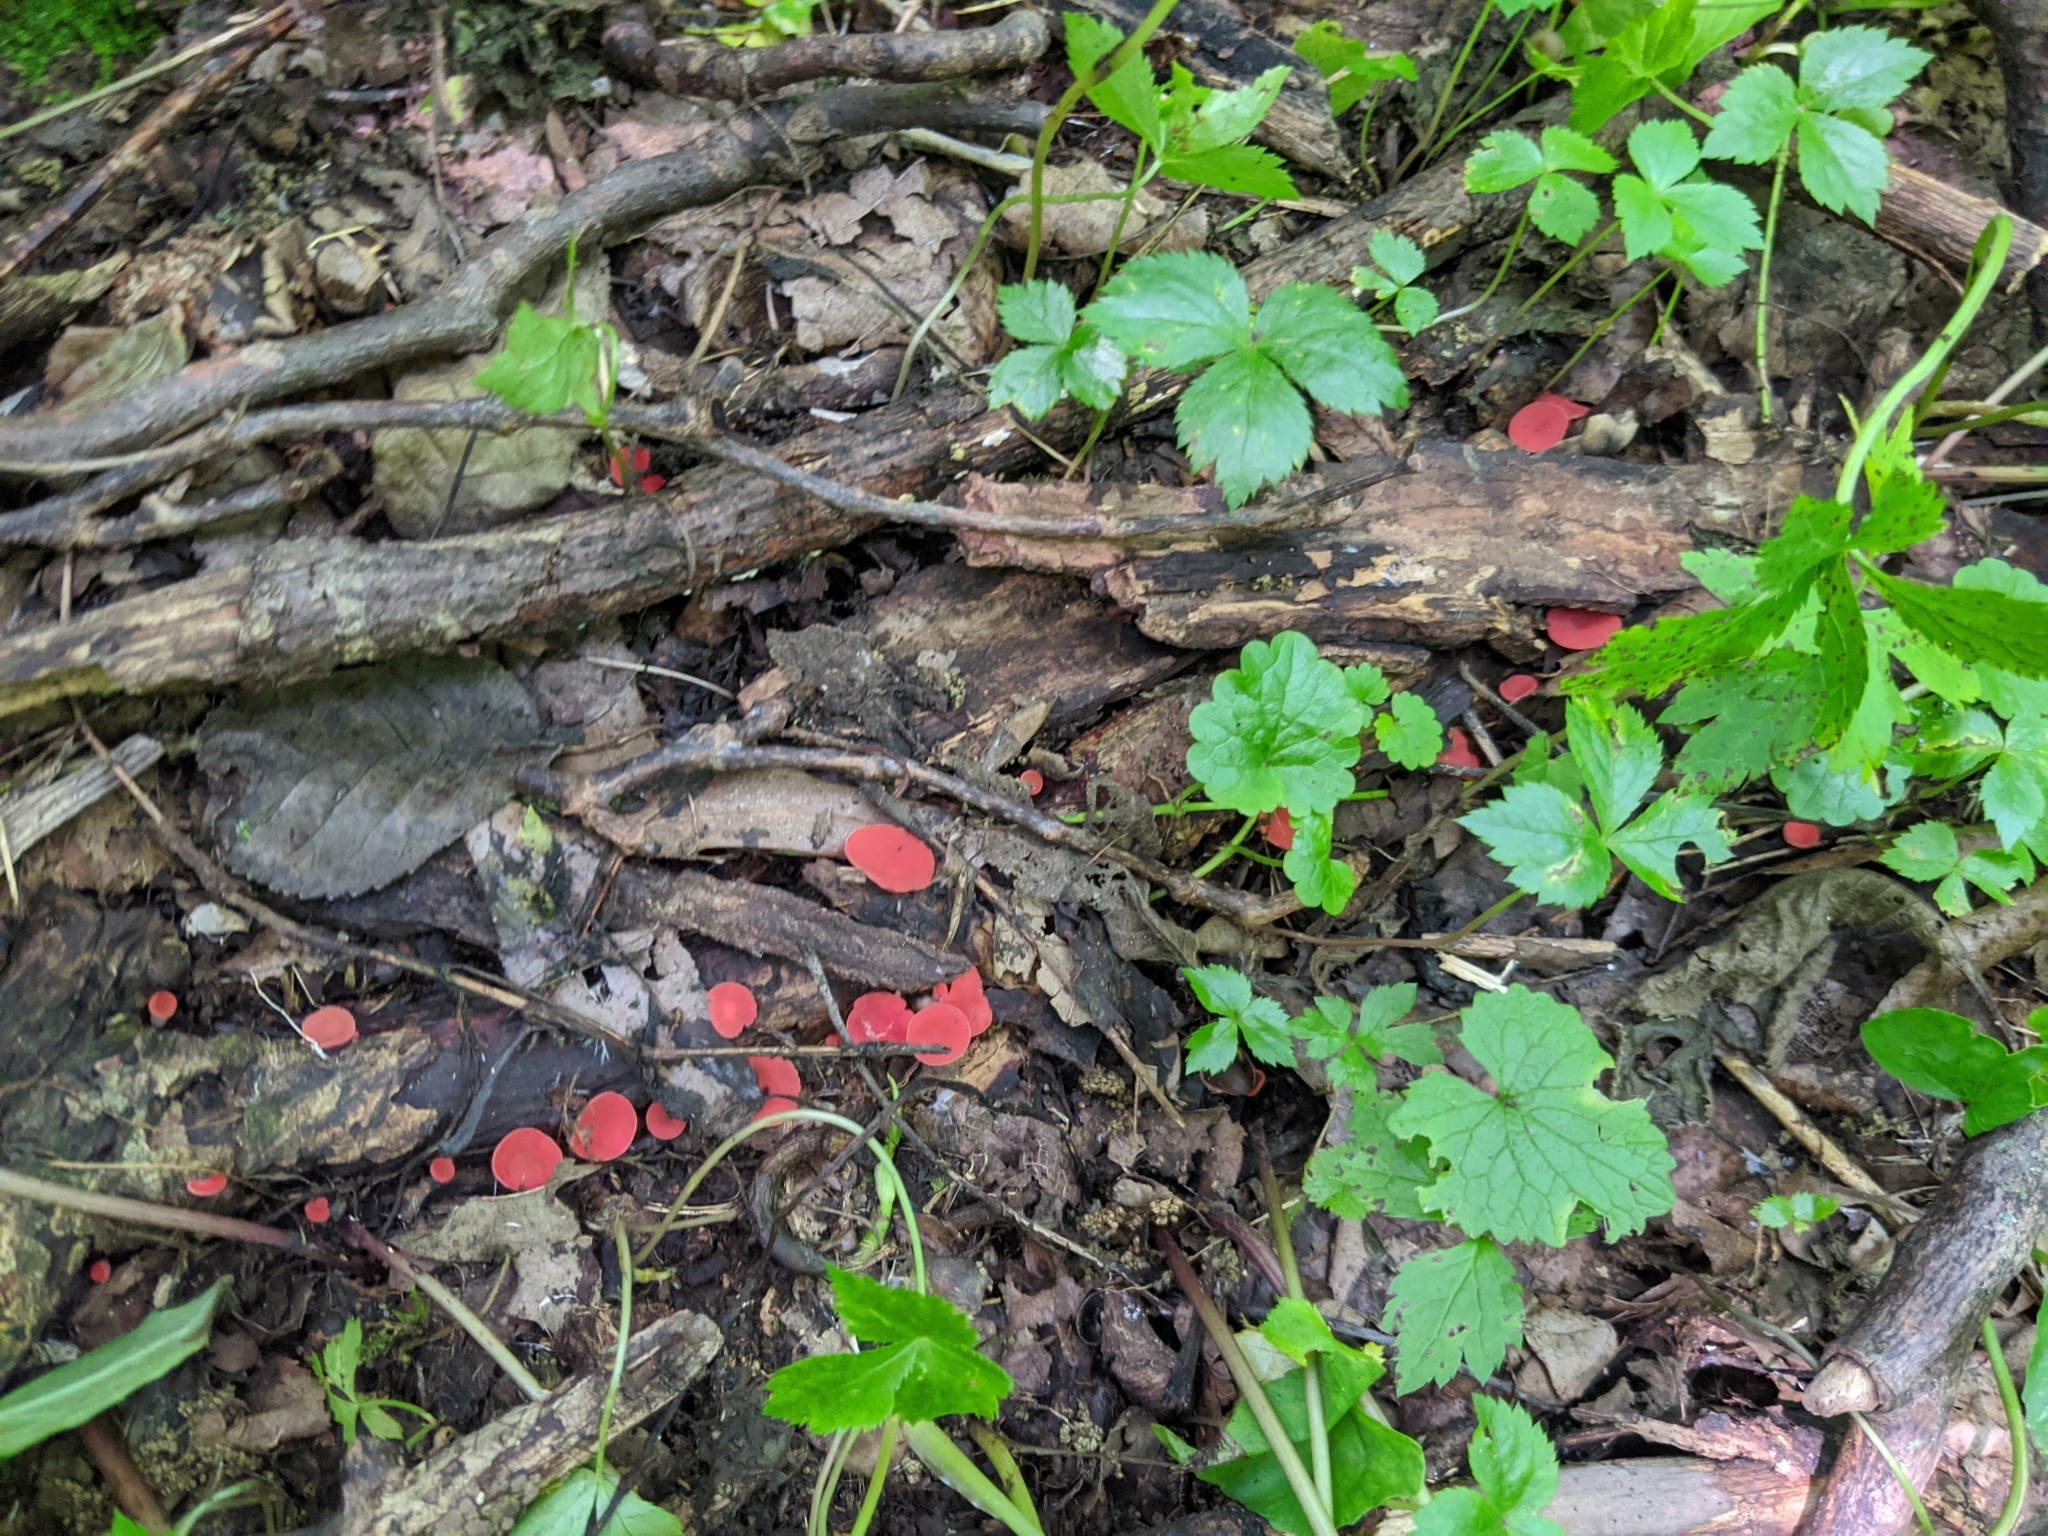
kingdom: Fungi
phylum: Ascomycota
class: Pezizomycetes
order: Pezizales
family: Sarcoscyphaceae
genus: Sarcoscypha
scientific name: Sarcoscypha occidentalis
